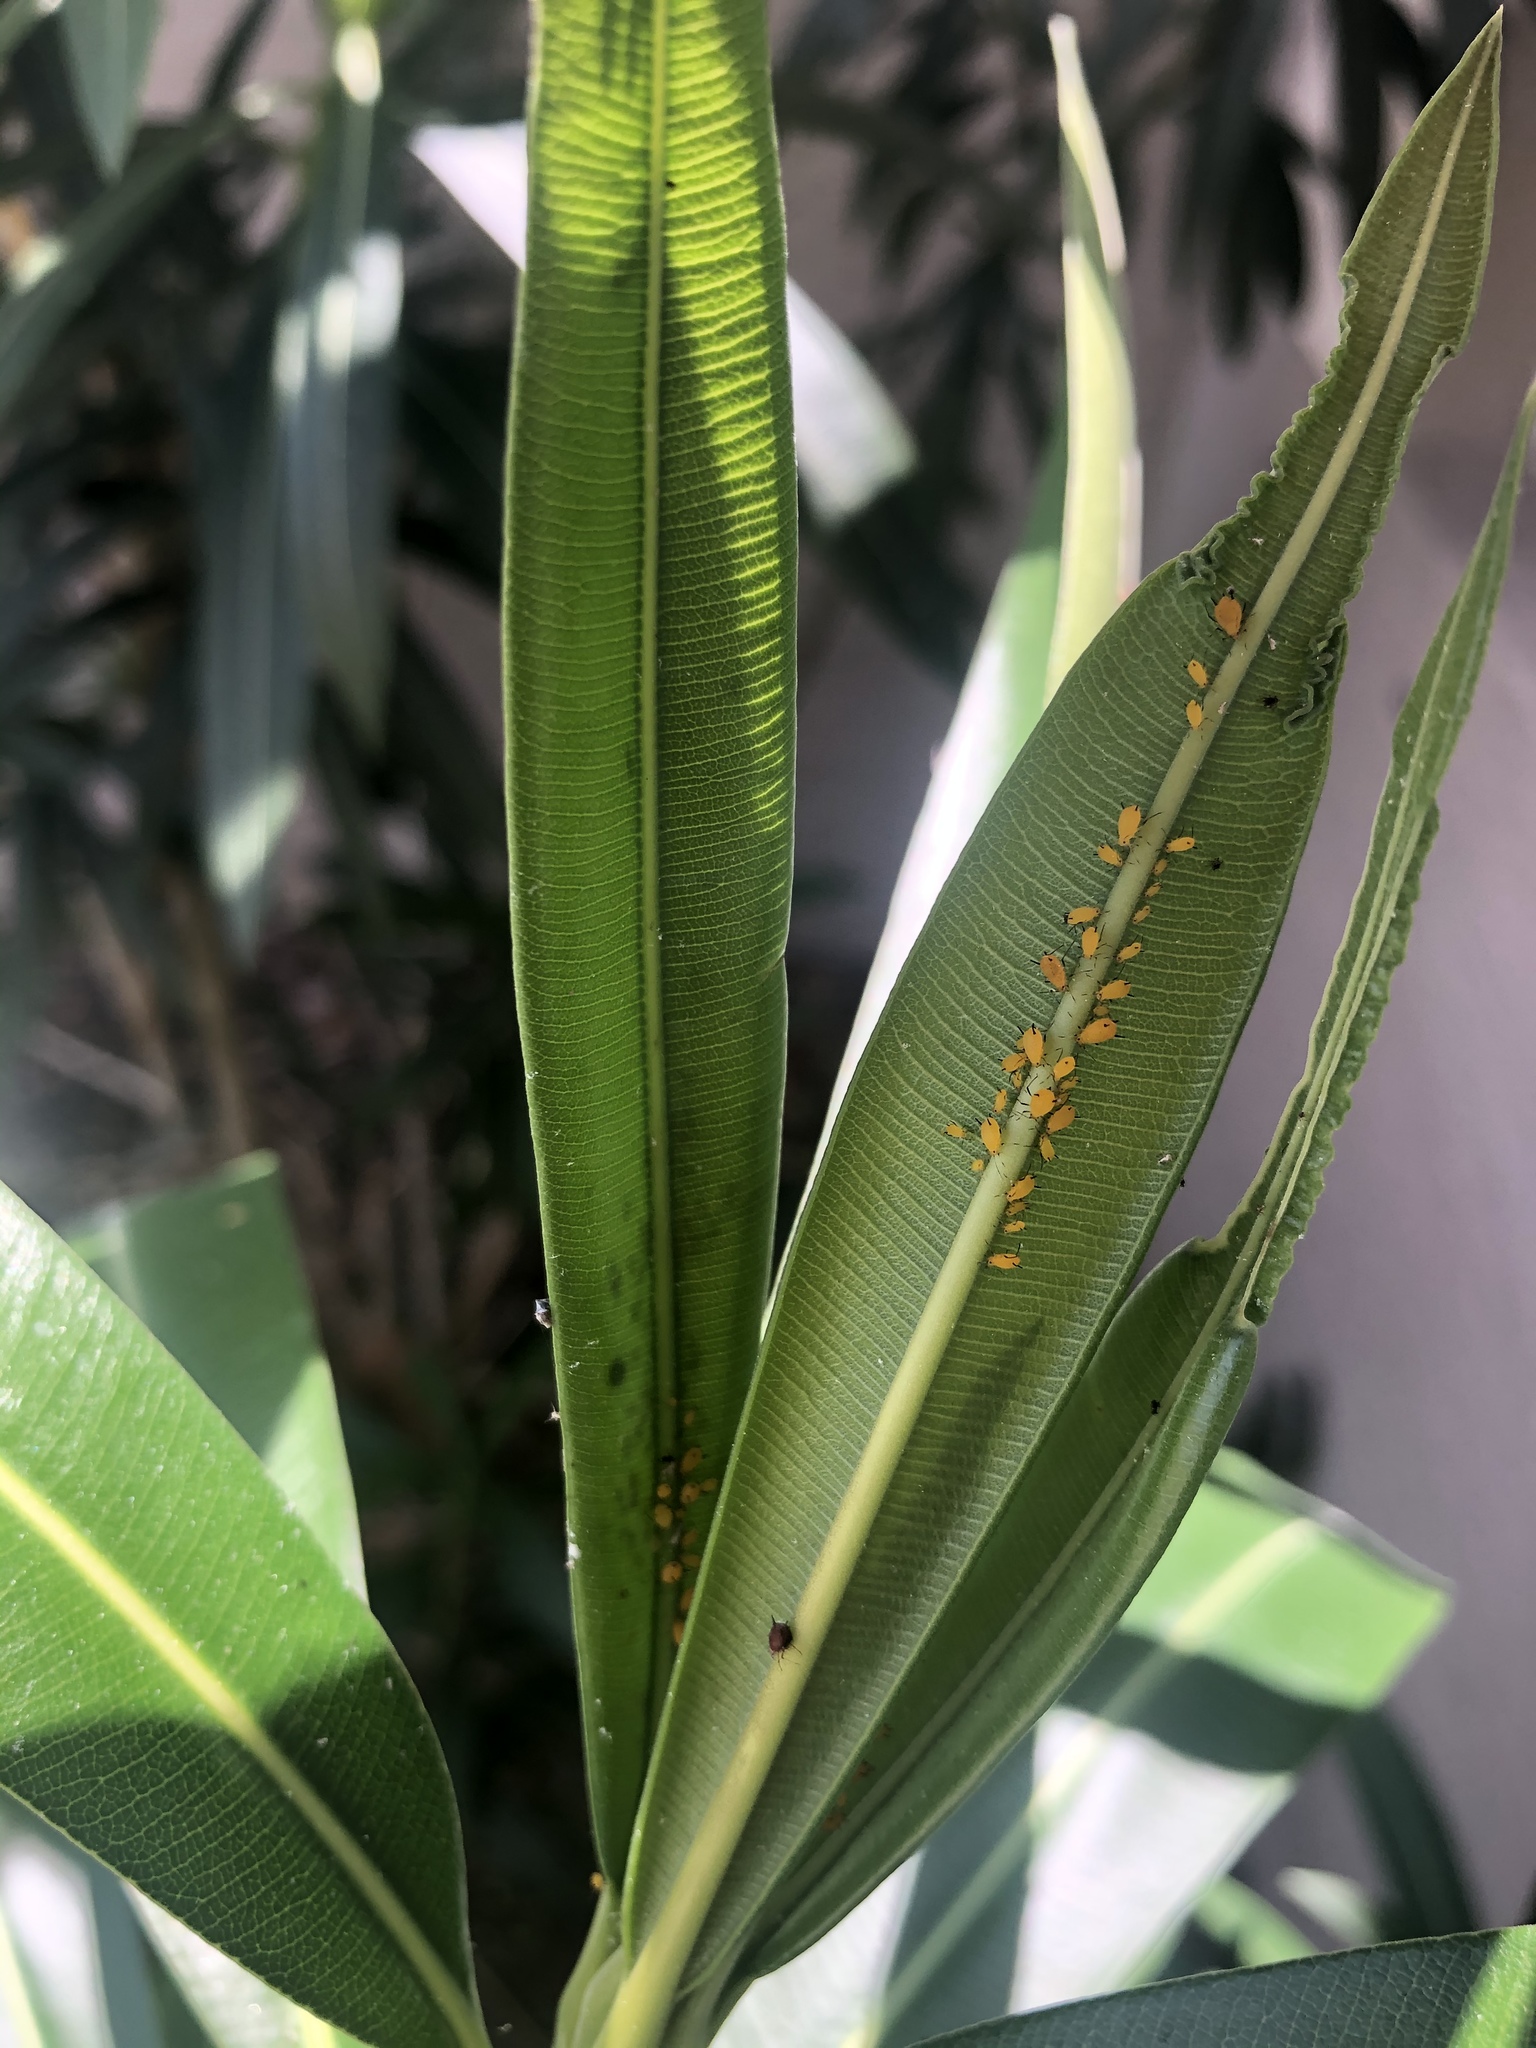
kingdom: Animalia
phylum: Arthropoda
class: Insecta
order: Hemiptera
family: Aphididae
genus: Aphis
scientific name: Aphis nerii
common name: Oleander aphid
